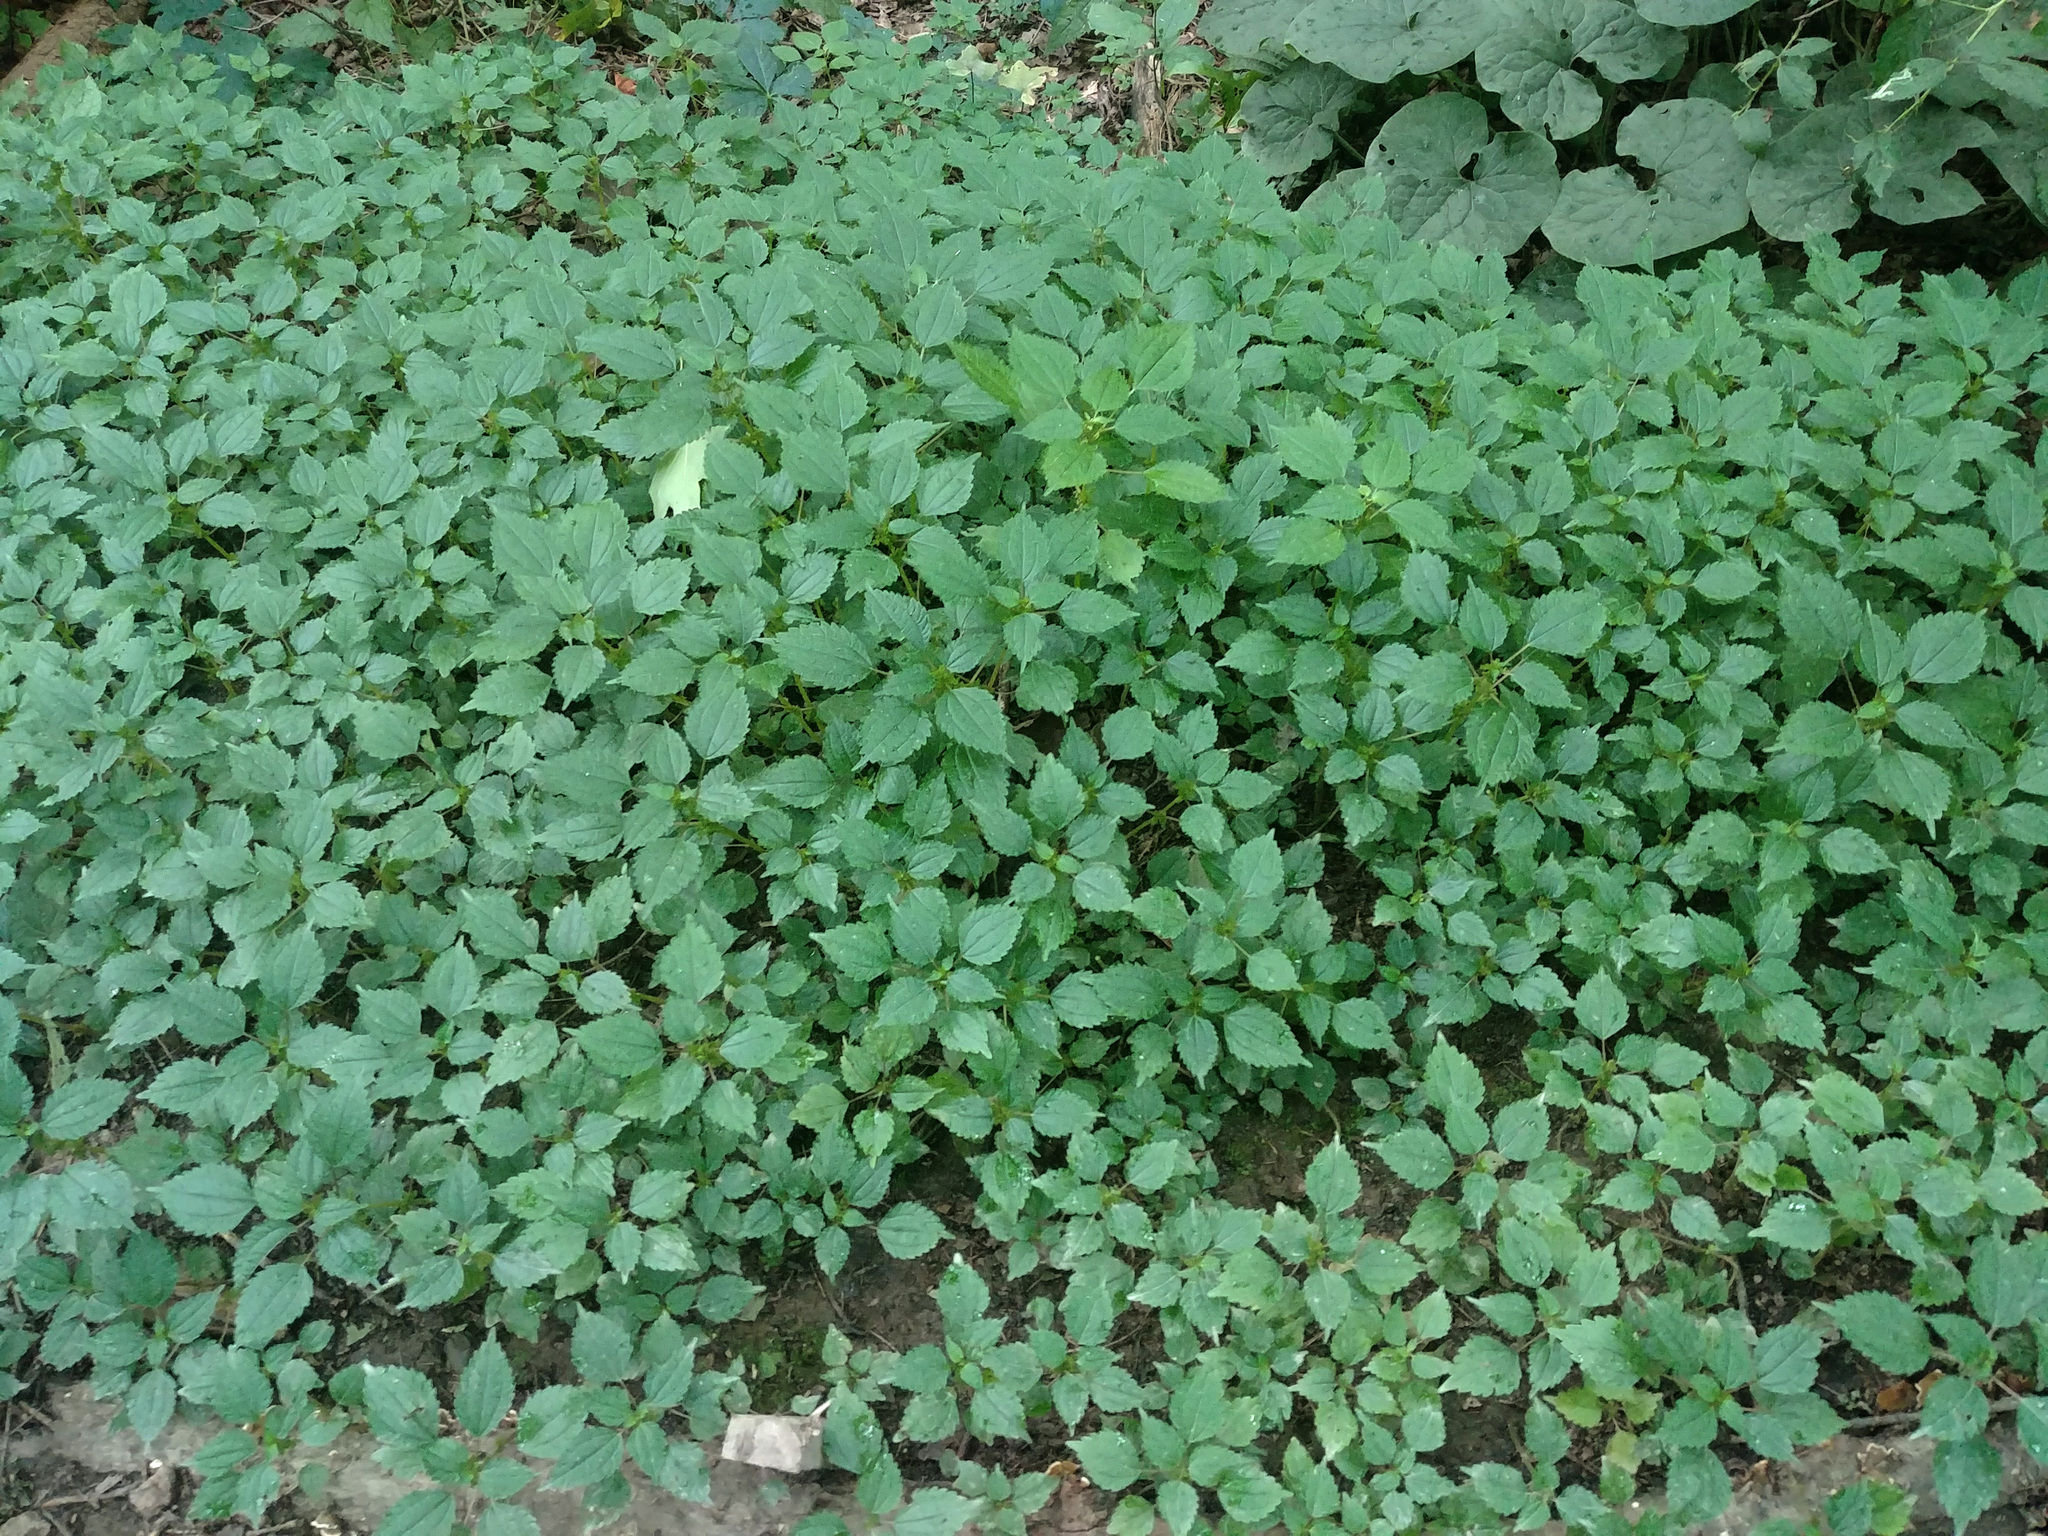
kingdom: Plantae
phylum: Tracheophyta
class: Magnoliopsida
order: Rosales
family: Urticaceae
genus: Pilea
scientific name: Pilea pumila
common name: Clearweed
